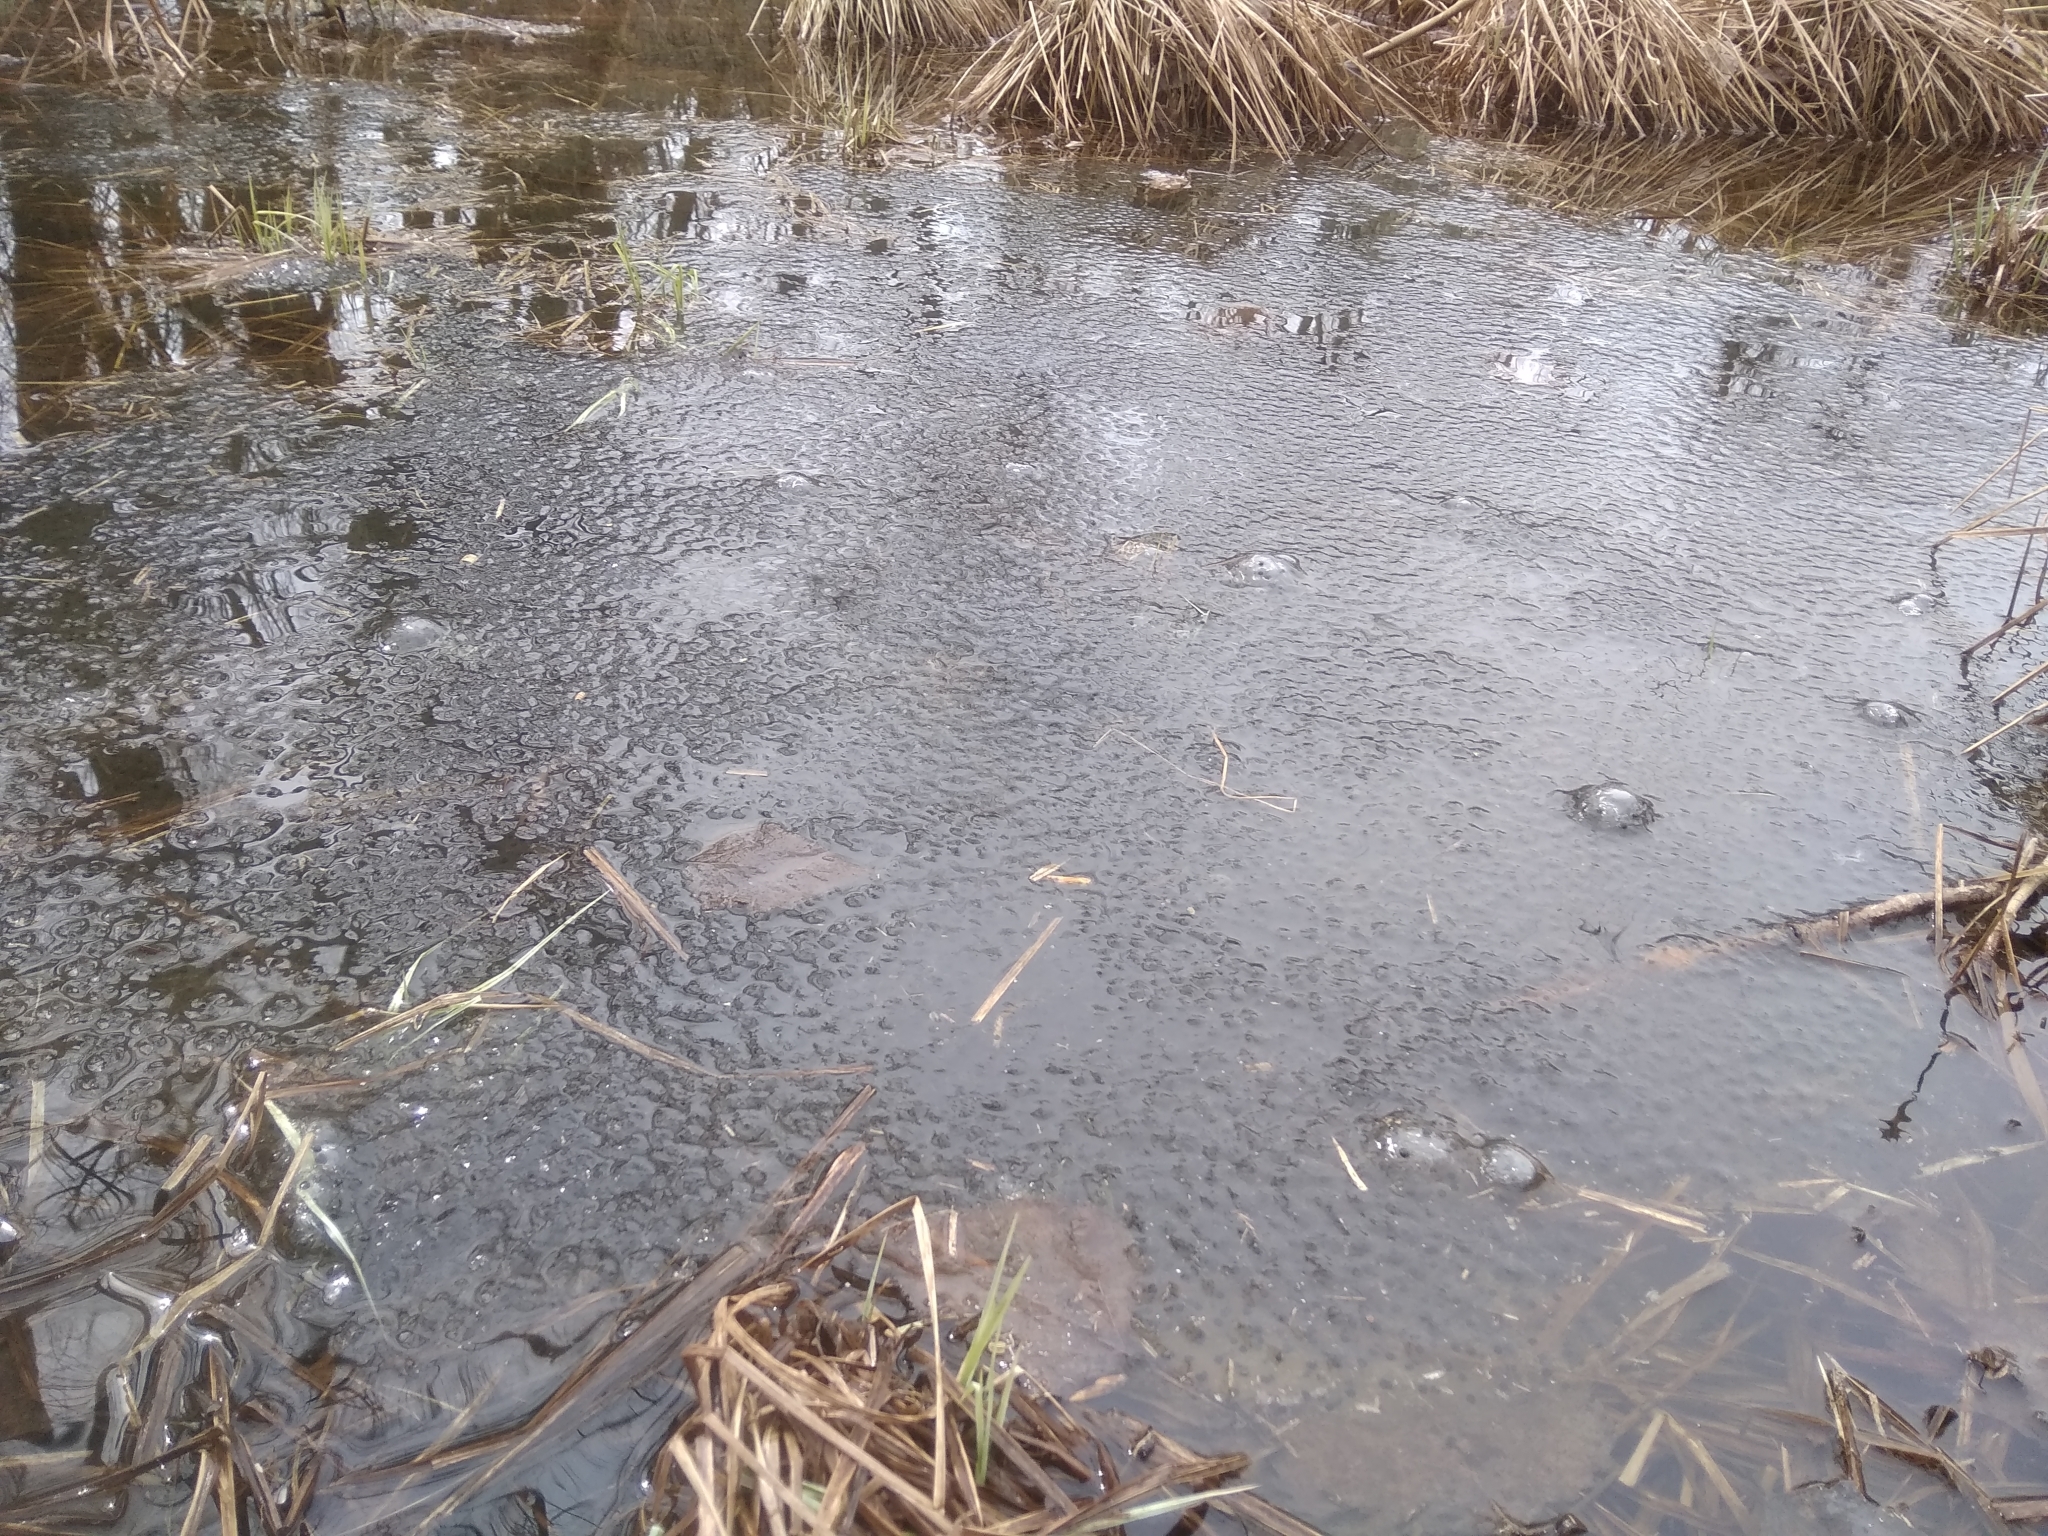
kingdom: Animalia
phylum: Chordata
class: Amphibia
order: Anura
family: Ranidae
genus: Rana
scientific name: Rana temporaria
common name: Common frog
